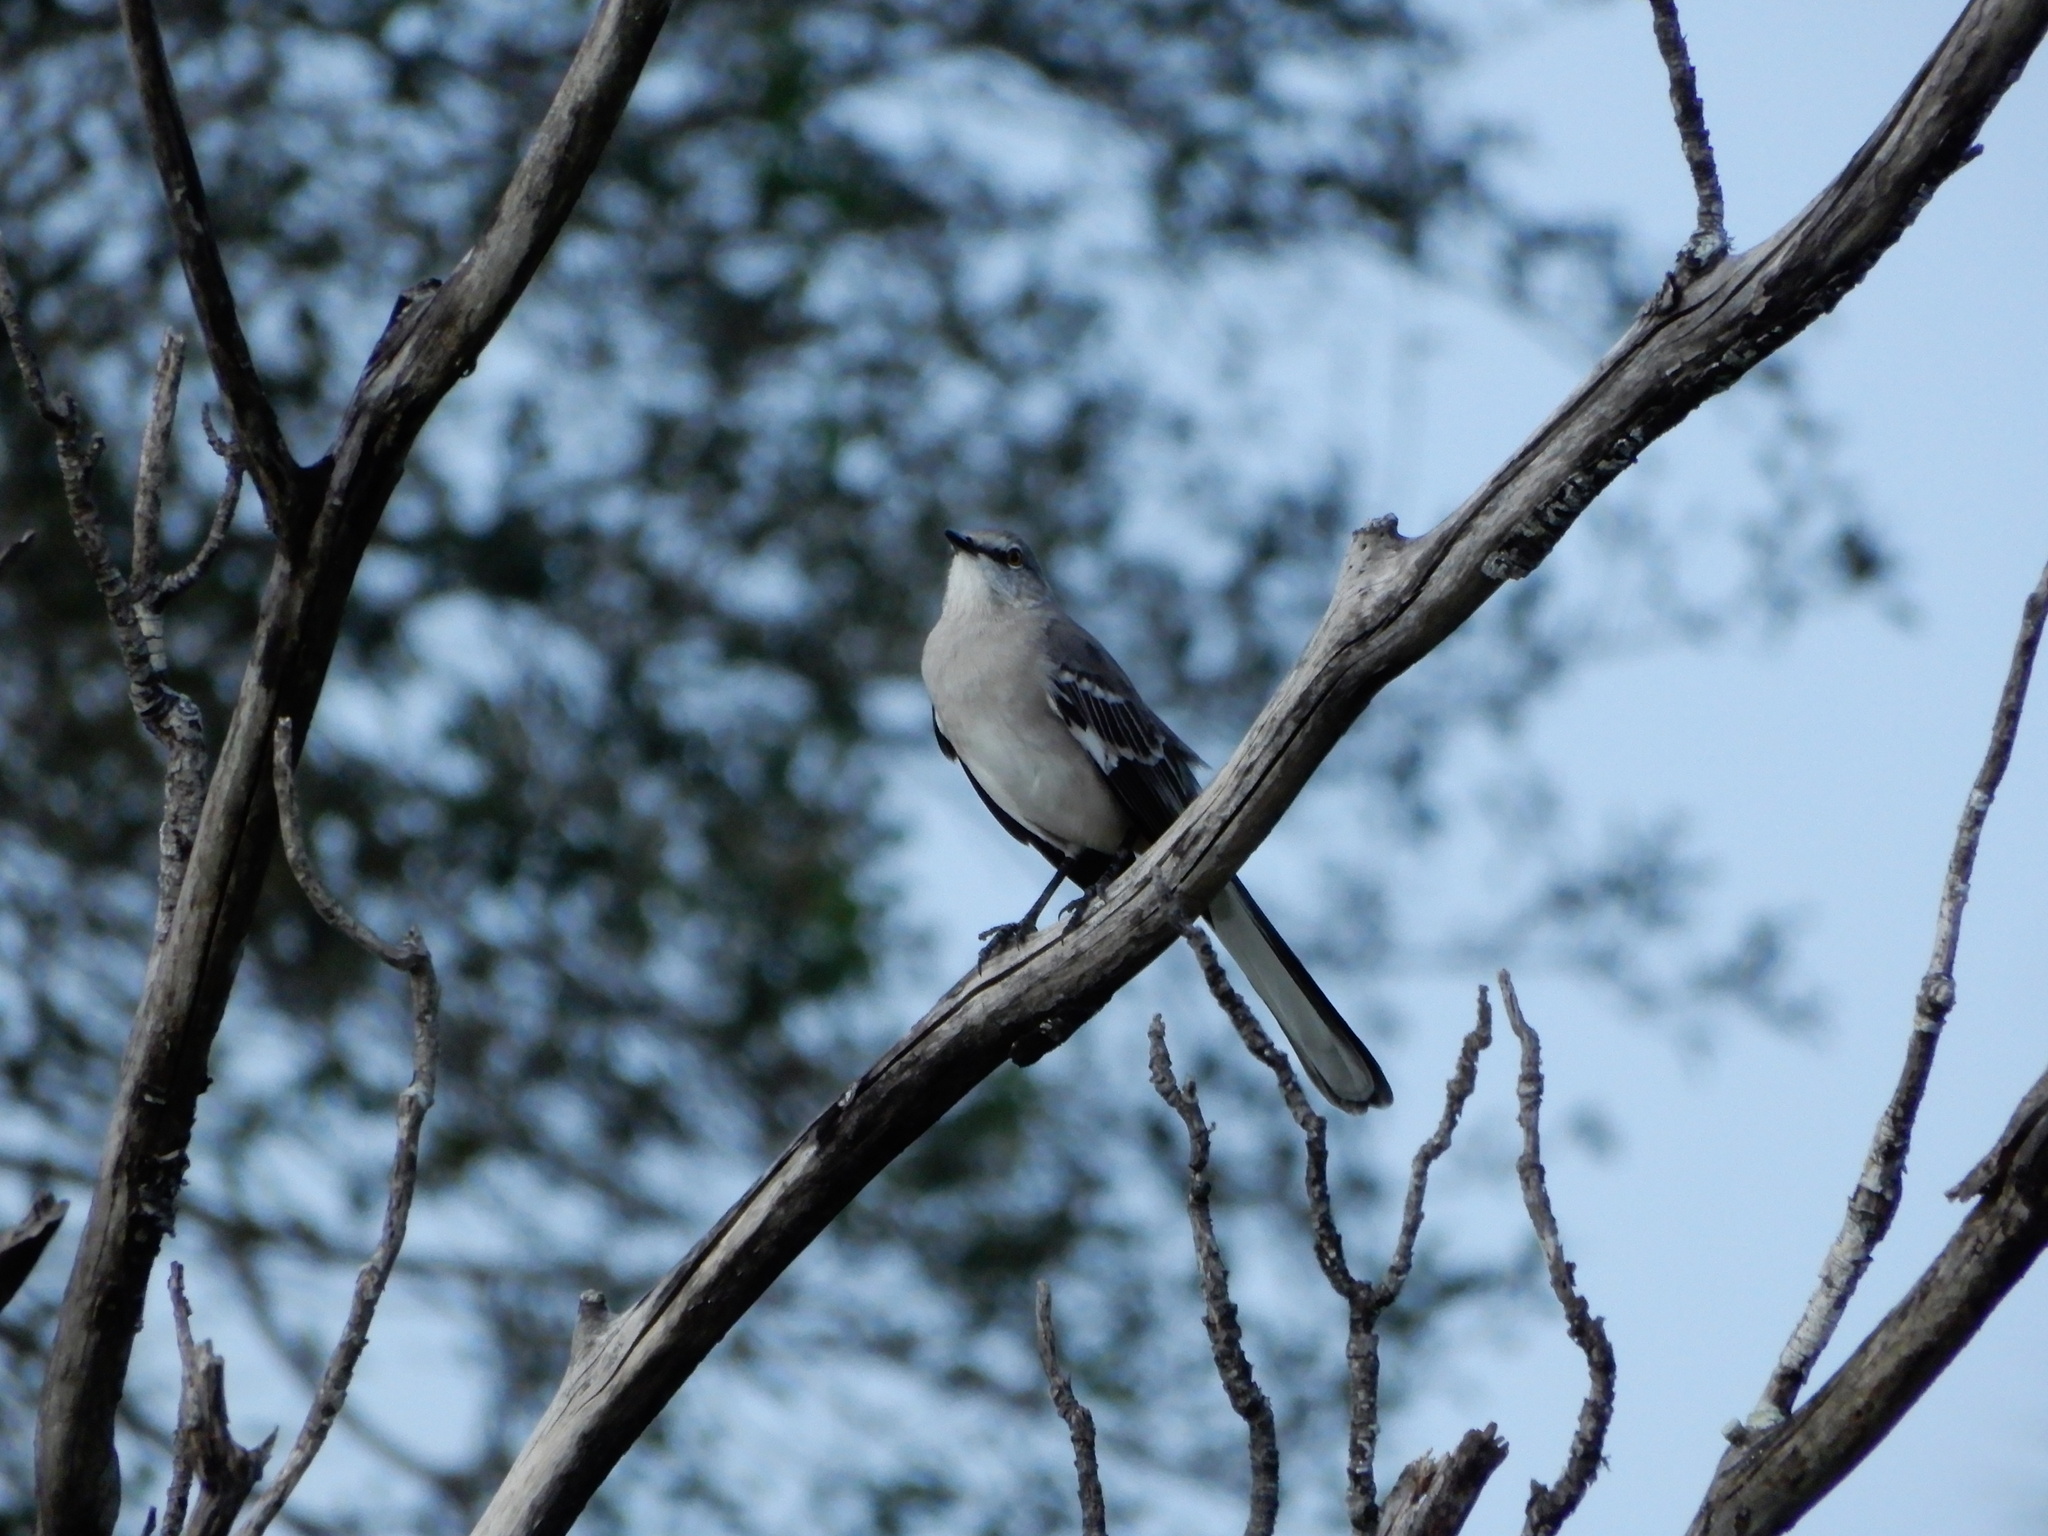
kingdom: Animalia
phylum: Chordata
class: Aves
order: Passeriformes
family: Mimidae
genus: Mimus
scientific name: Mimus polyglottos
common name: Northern mockingbird
